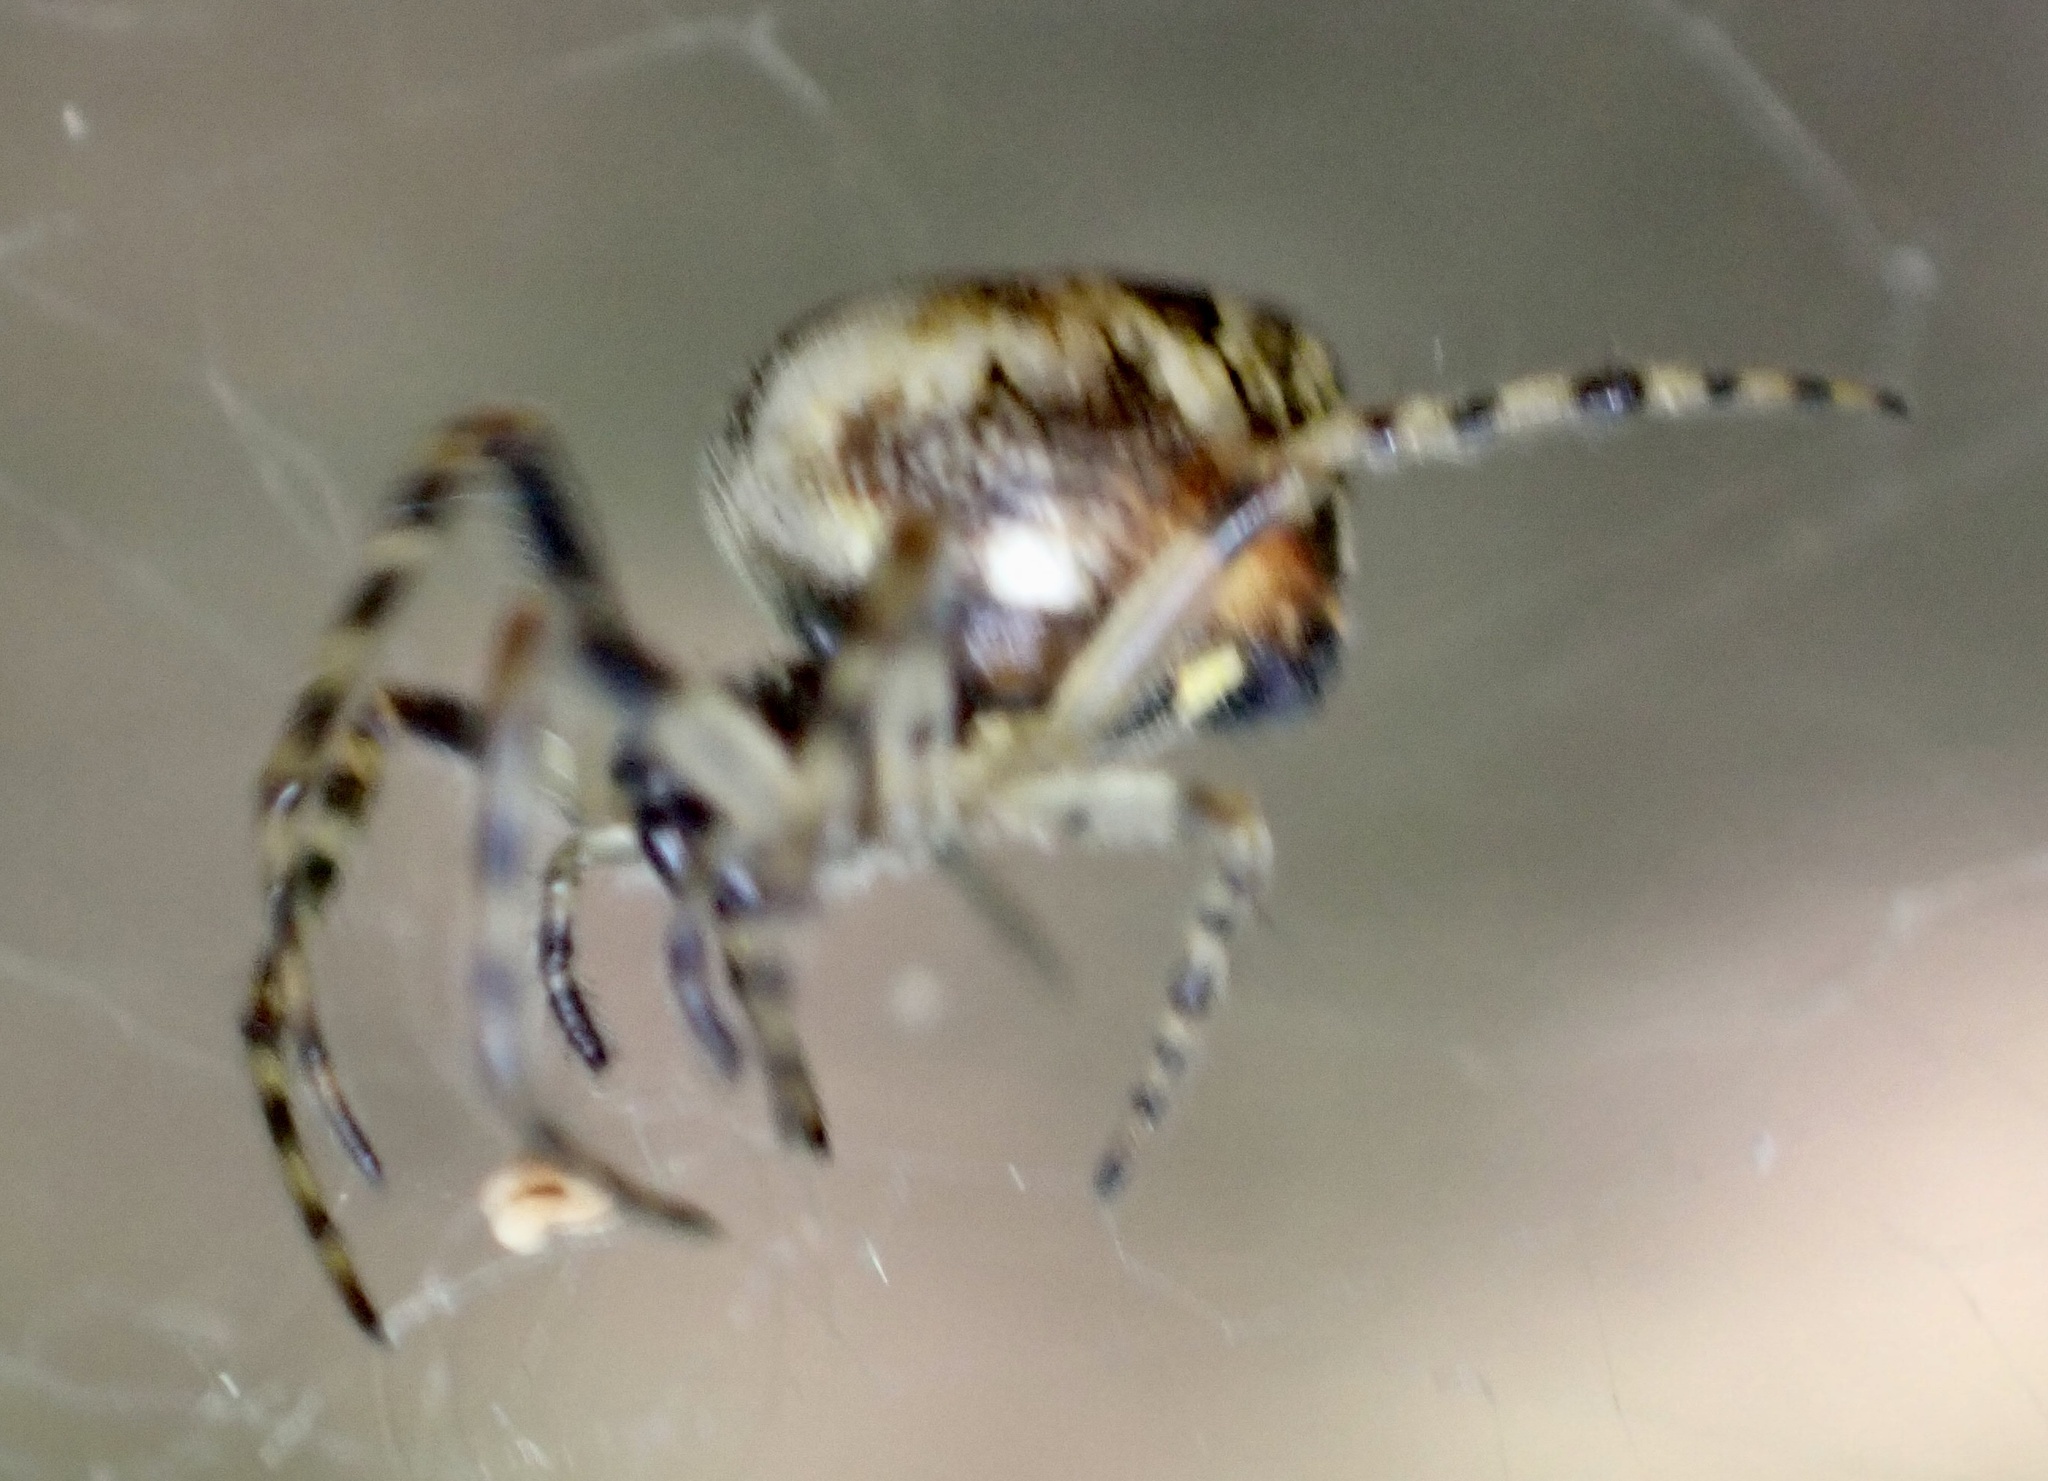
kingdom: Animalia
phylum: Arthropoda
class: Arachnida
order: Araneae
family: Araneidae
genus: Cyclosa
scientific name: Cyclosa conica
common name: Conical trashline orbweaver
